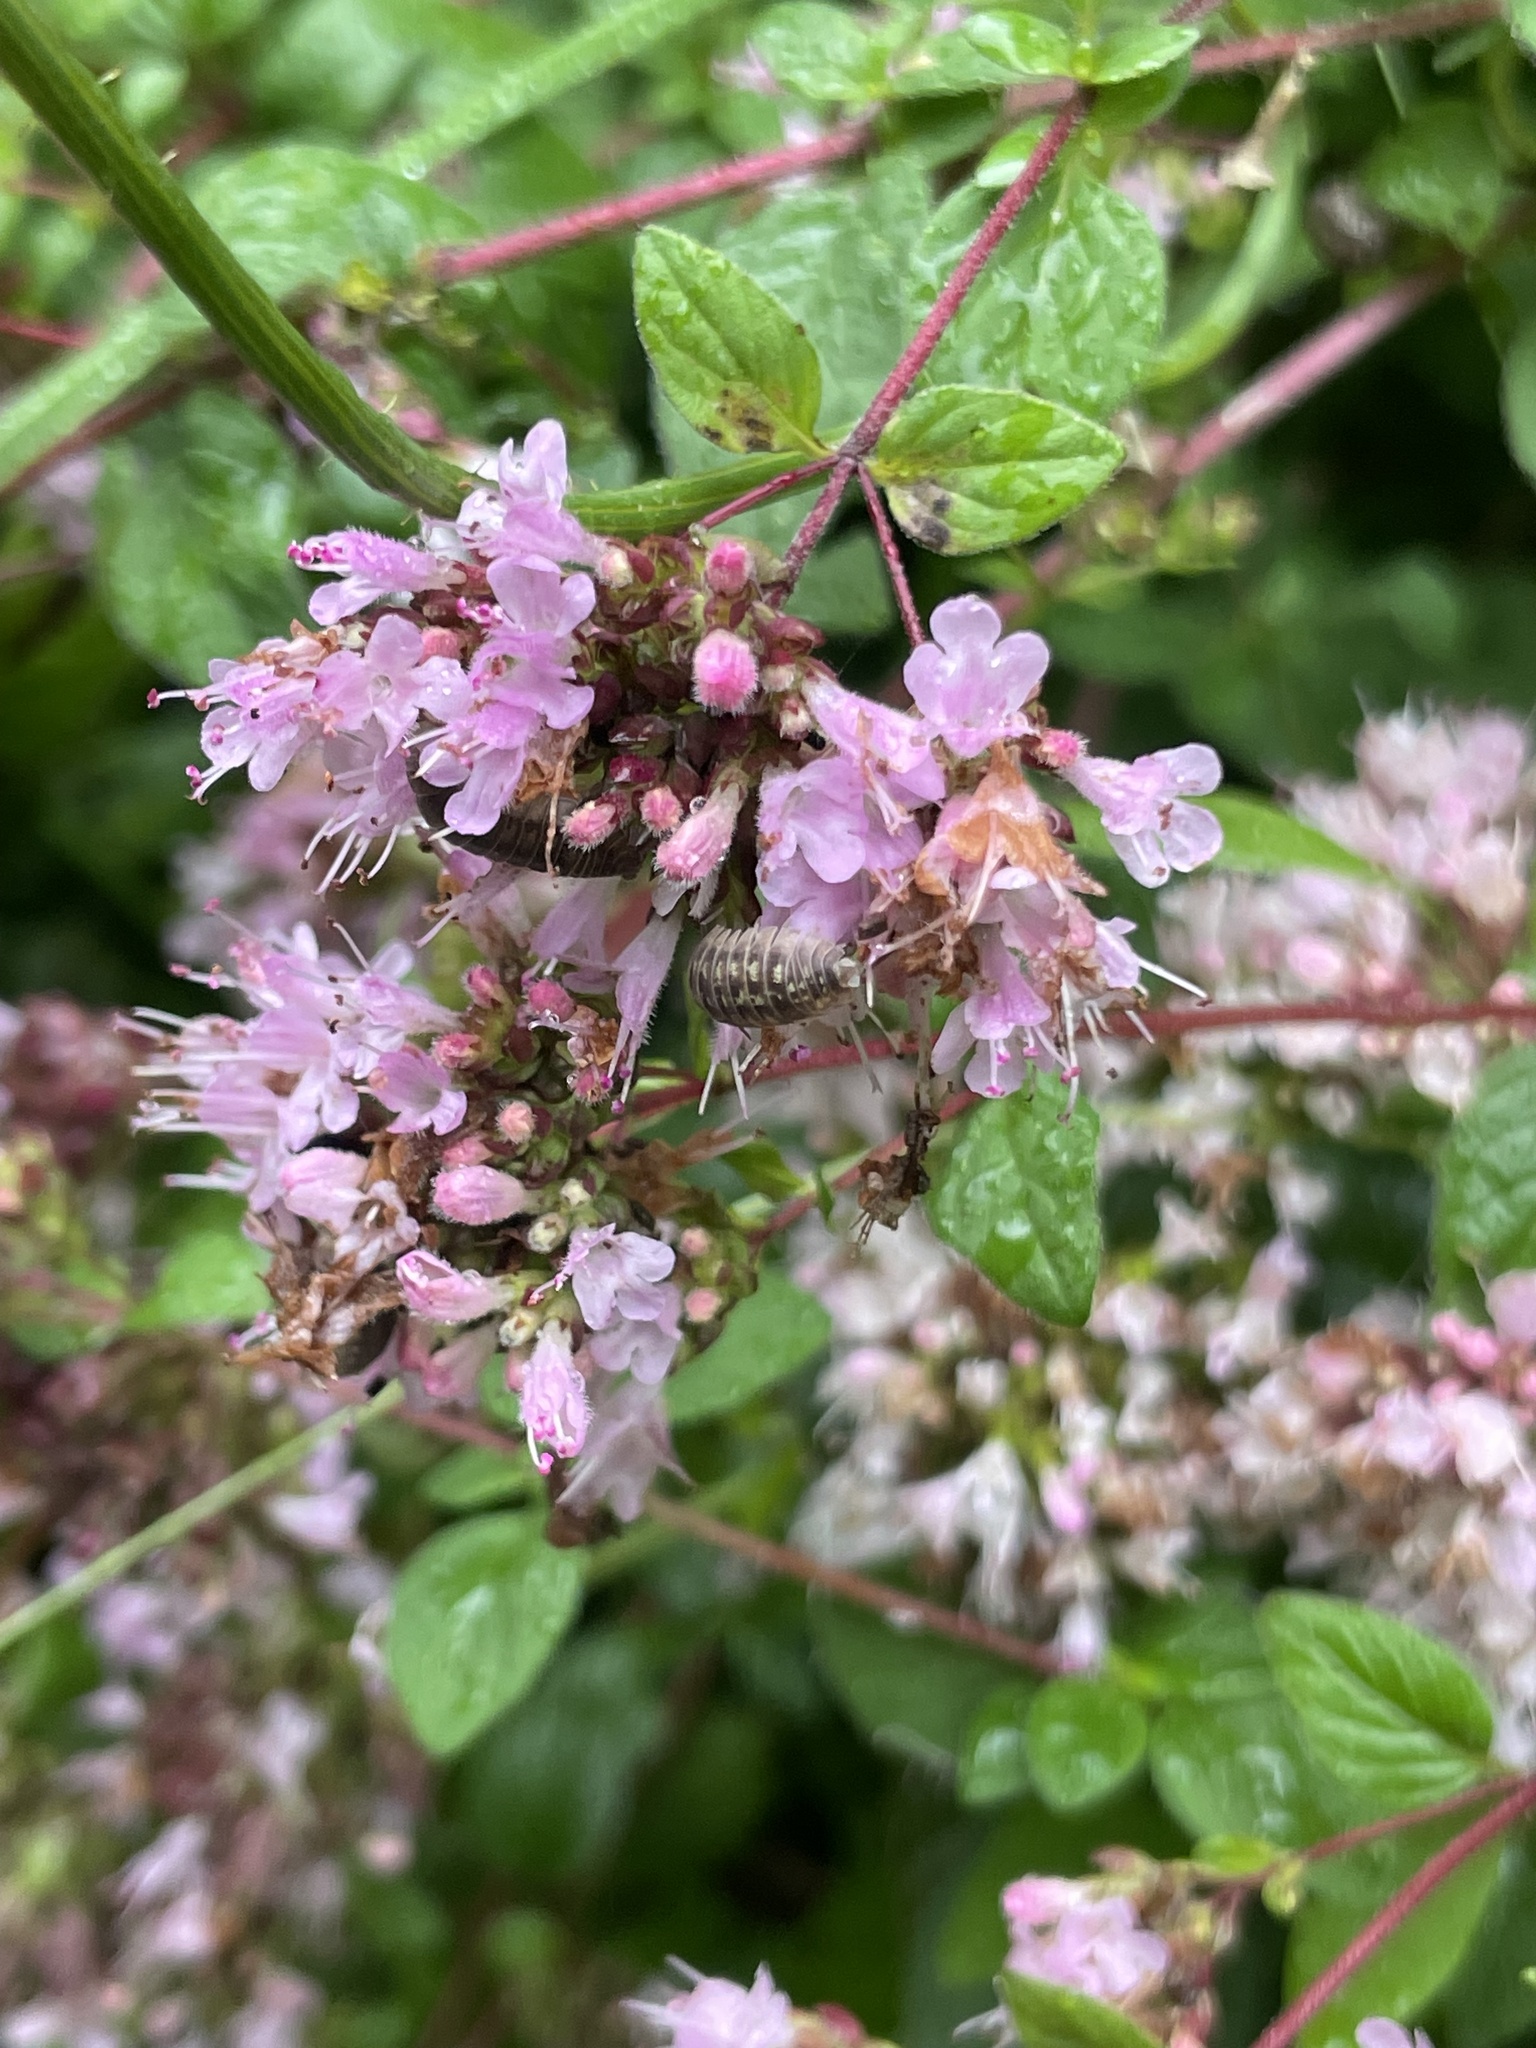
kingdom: Plantae
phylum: Tracheophyta
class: Magnoliopsida
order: Lamiales
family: Lamiaceae
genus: Origanum
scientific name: Origanum vulgare
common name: Wild marjoram
